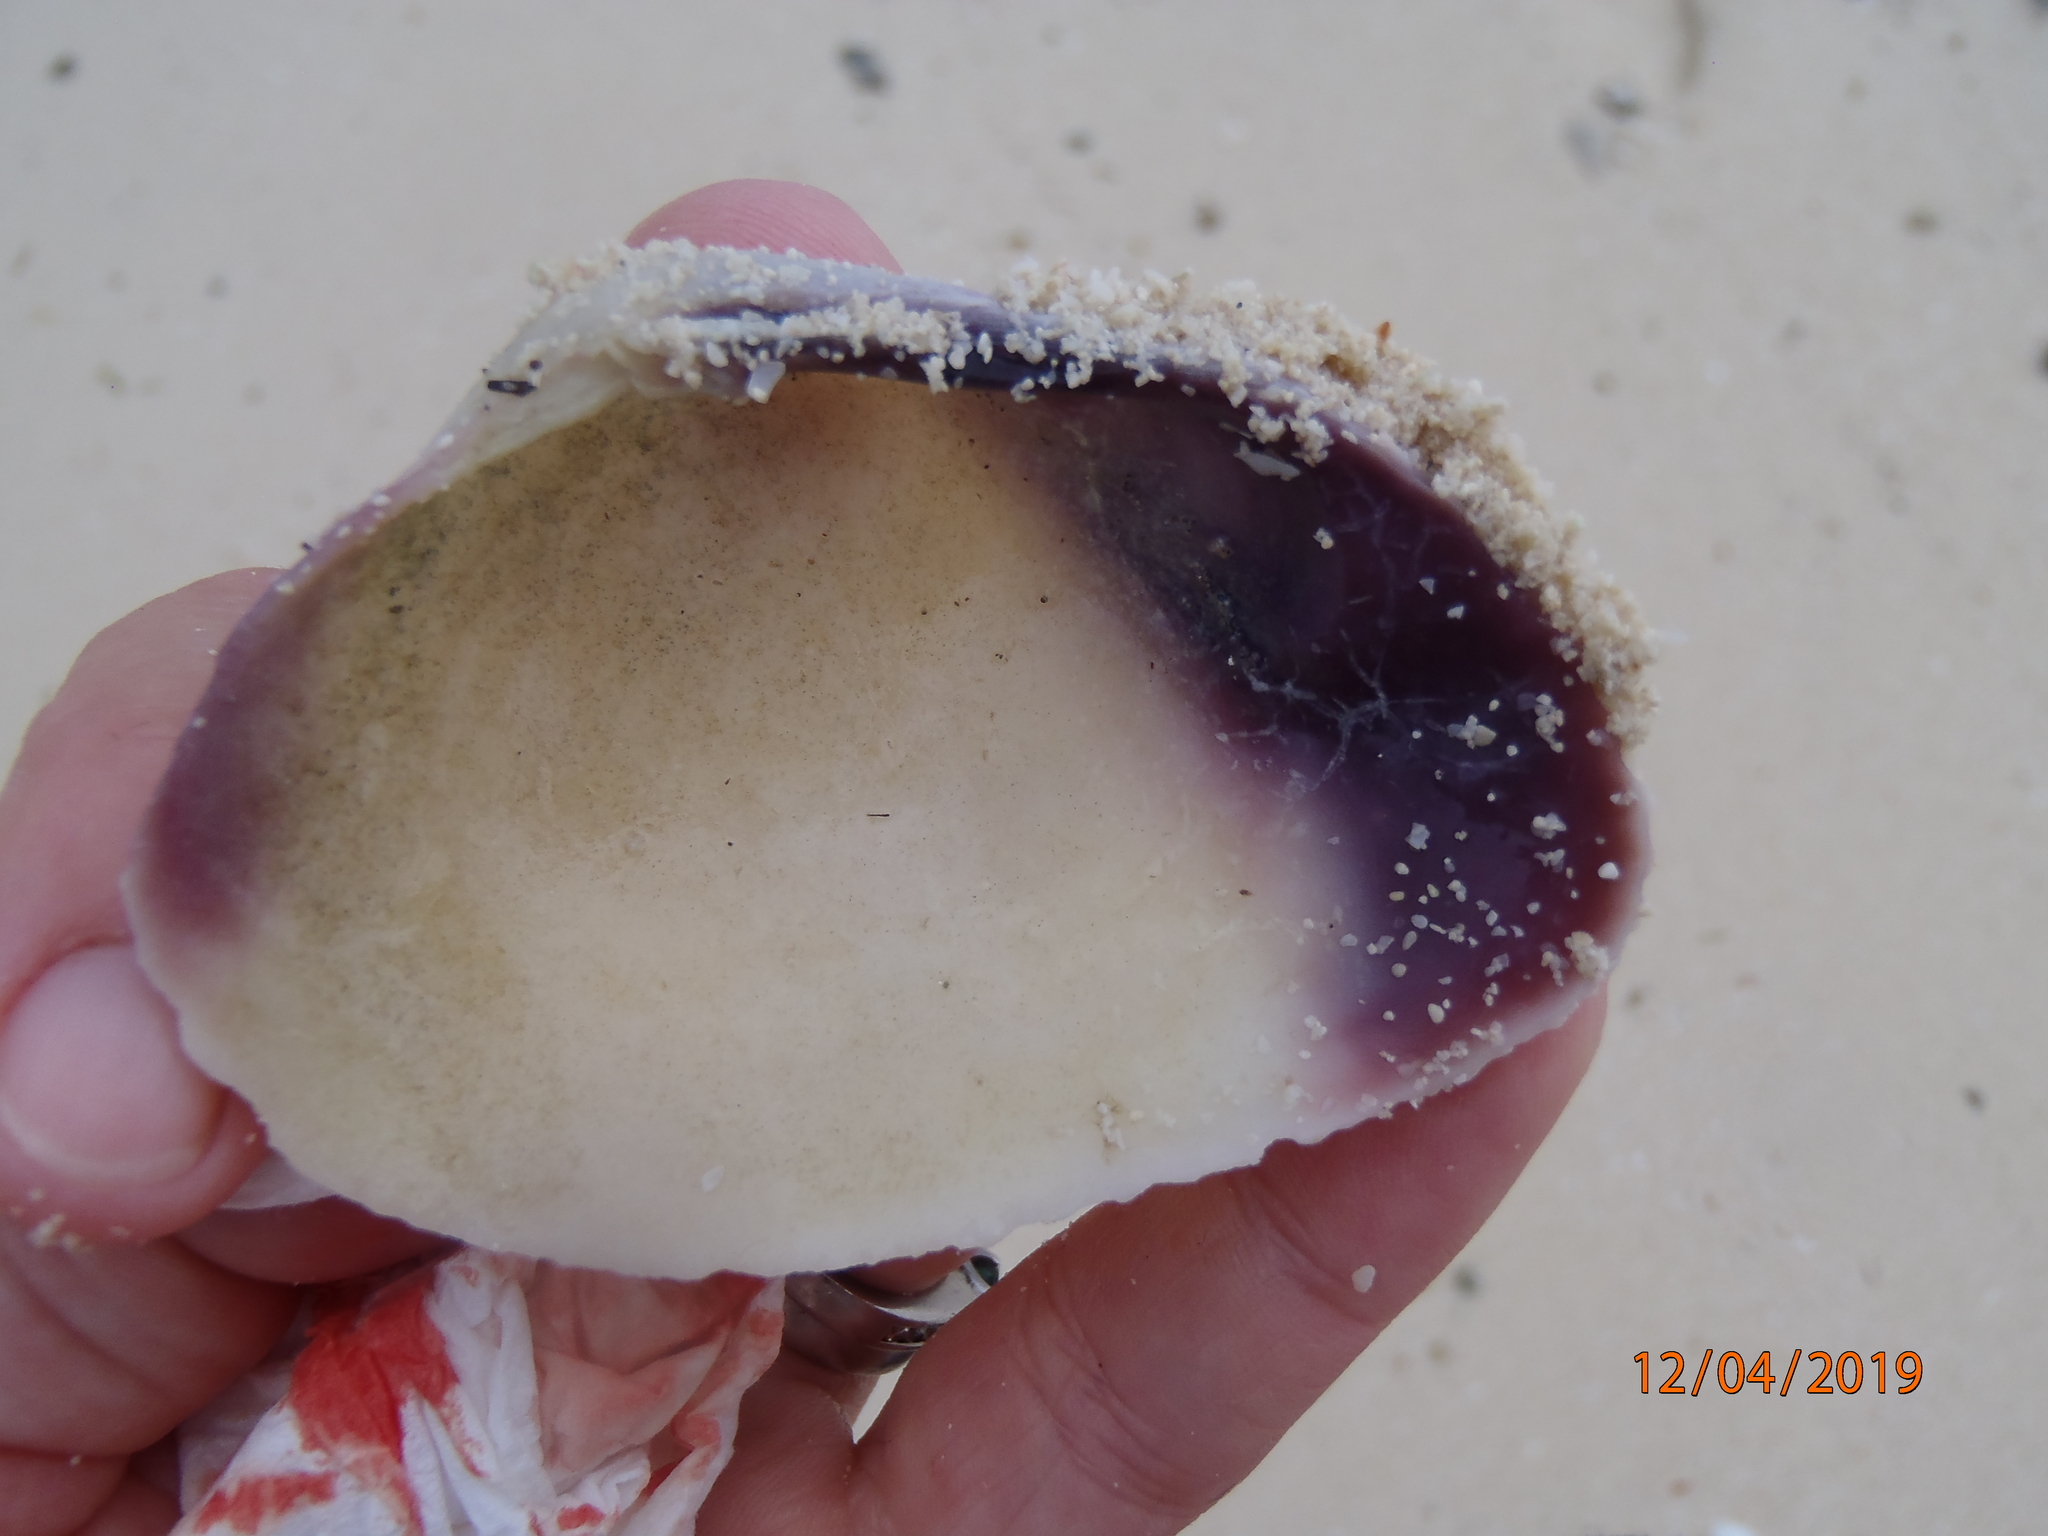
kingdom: Animalia
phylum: Mollusca
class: Bivalvia
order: Cardiida
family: Psammobiidae
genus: Asaphis
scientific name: Asaphis violascens
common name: Pacific asaphis
